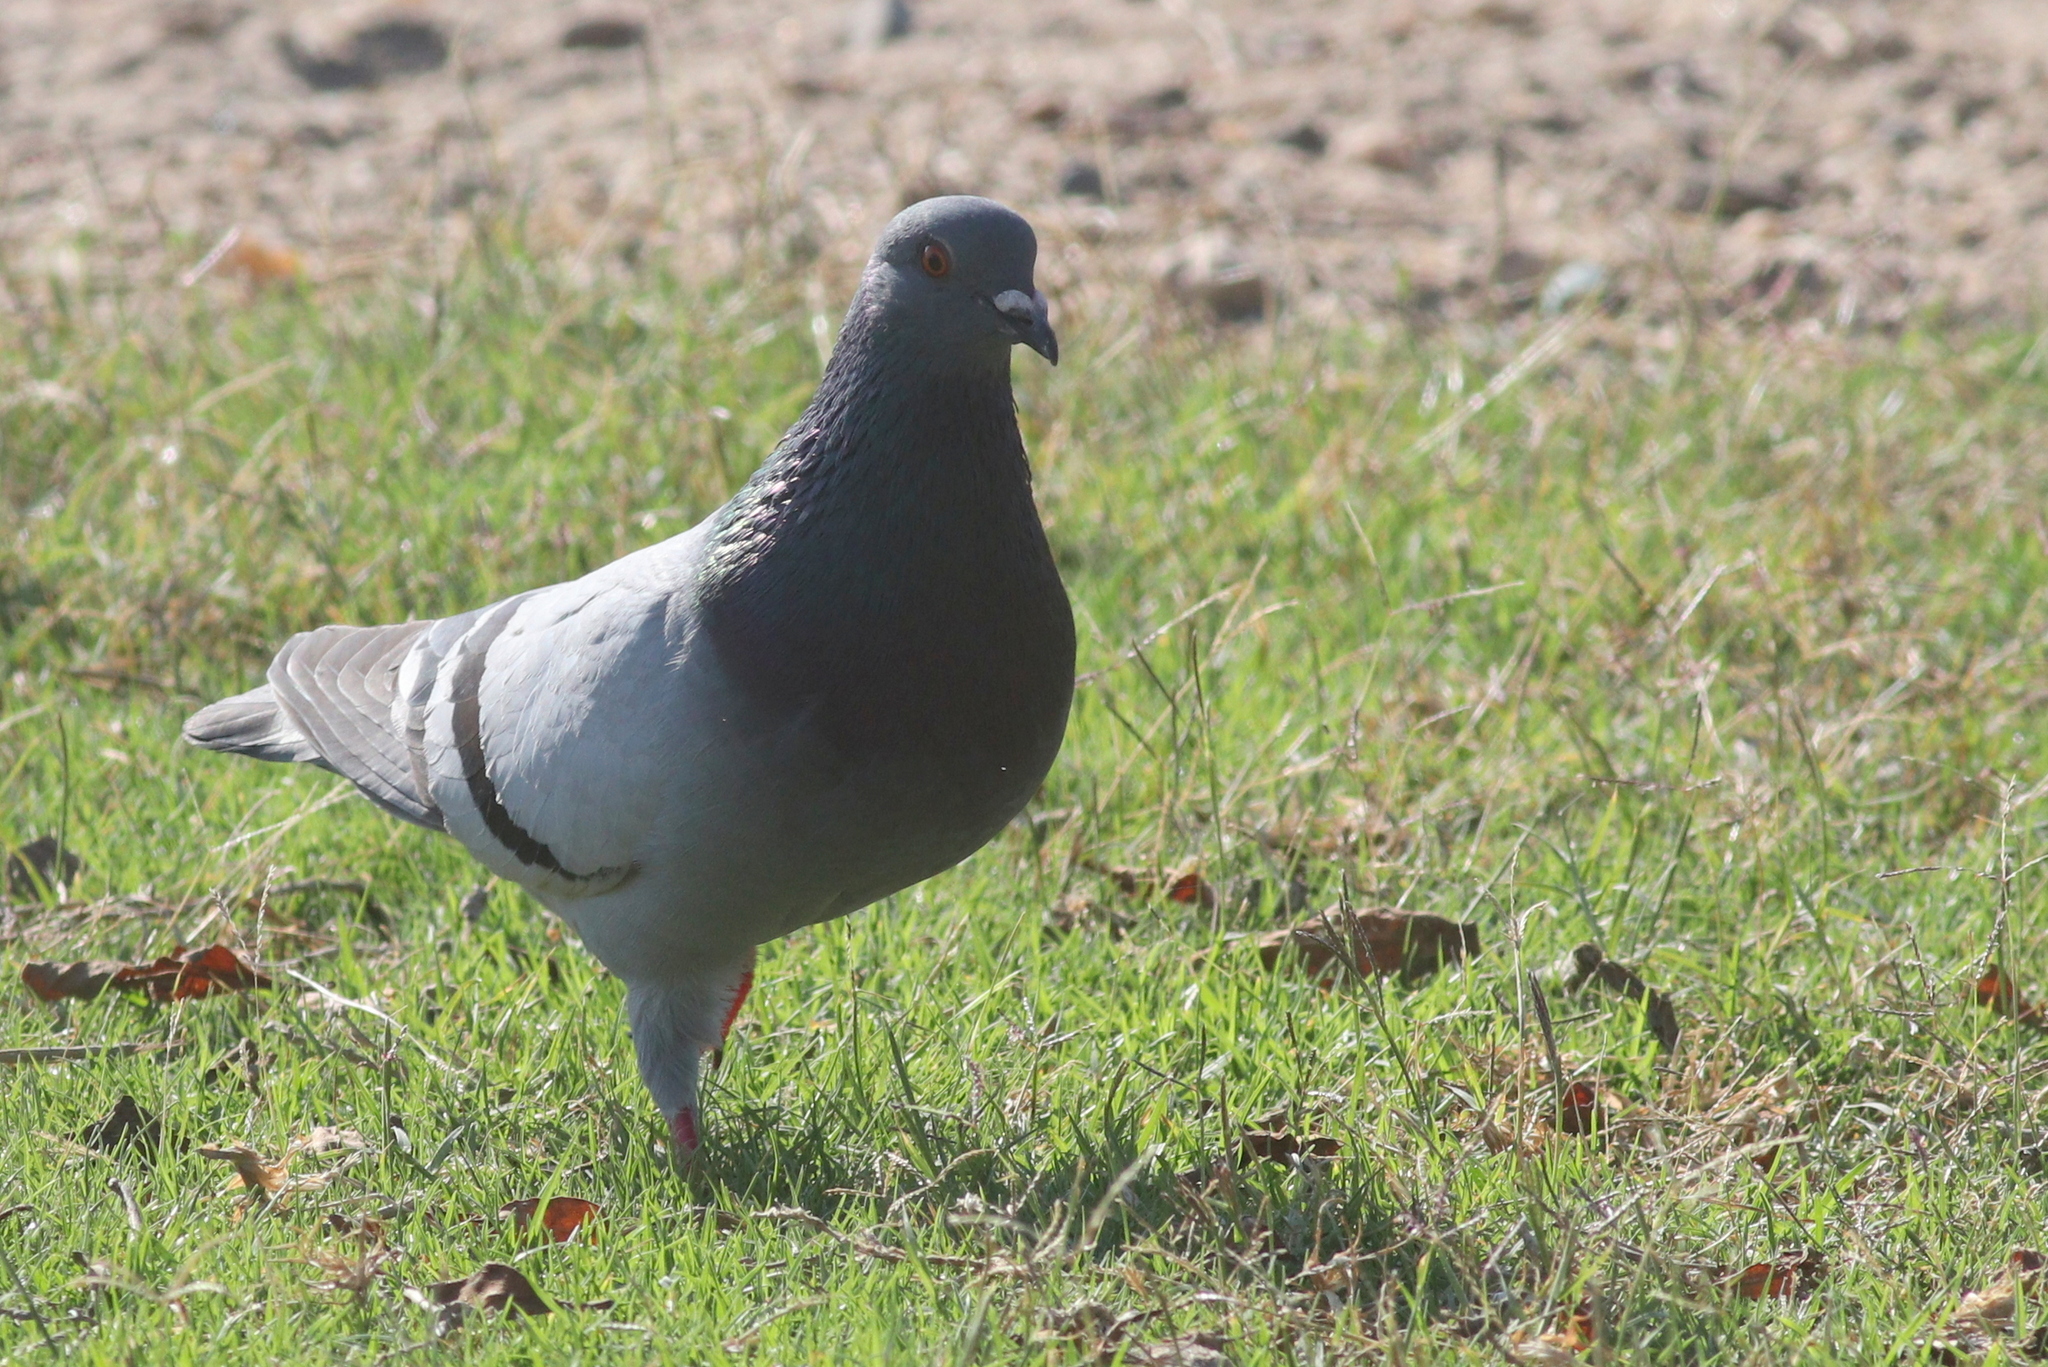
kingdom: Animalia
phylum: Chordata
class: Aves
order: Columbiformes
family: Columbidae
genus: Columba
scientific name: Columba livia
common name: Rock pigeon
